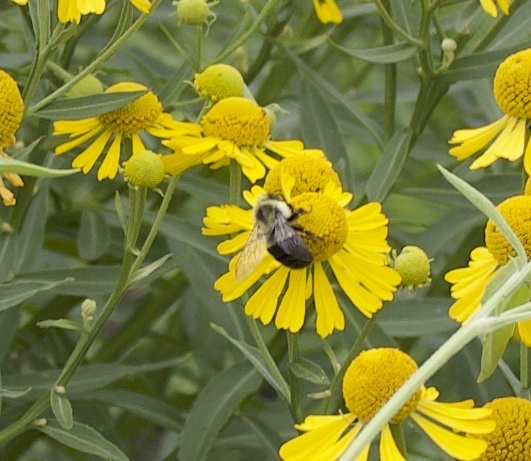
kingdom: Animalia
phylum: Arthropoda
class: Insecta
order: Hymenoptera
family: Apidae
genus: Bombus
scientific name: Bombus impatiens
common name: Common eastern bumble bee
